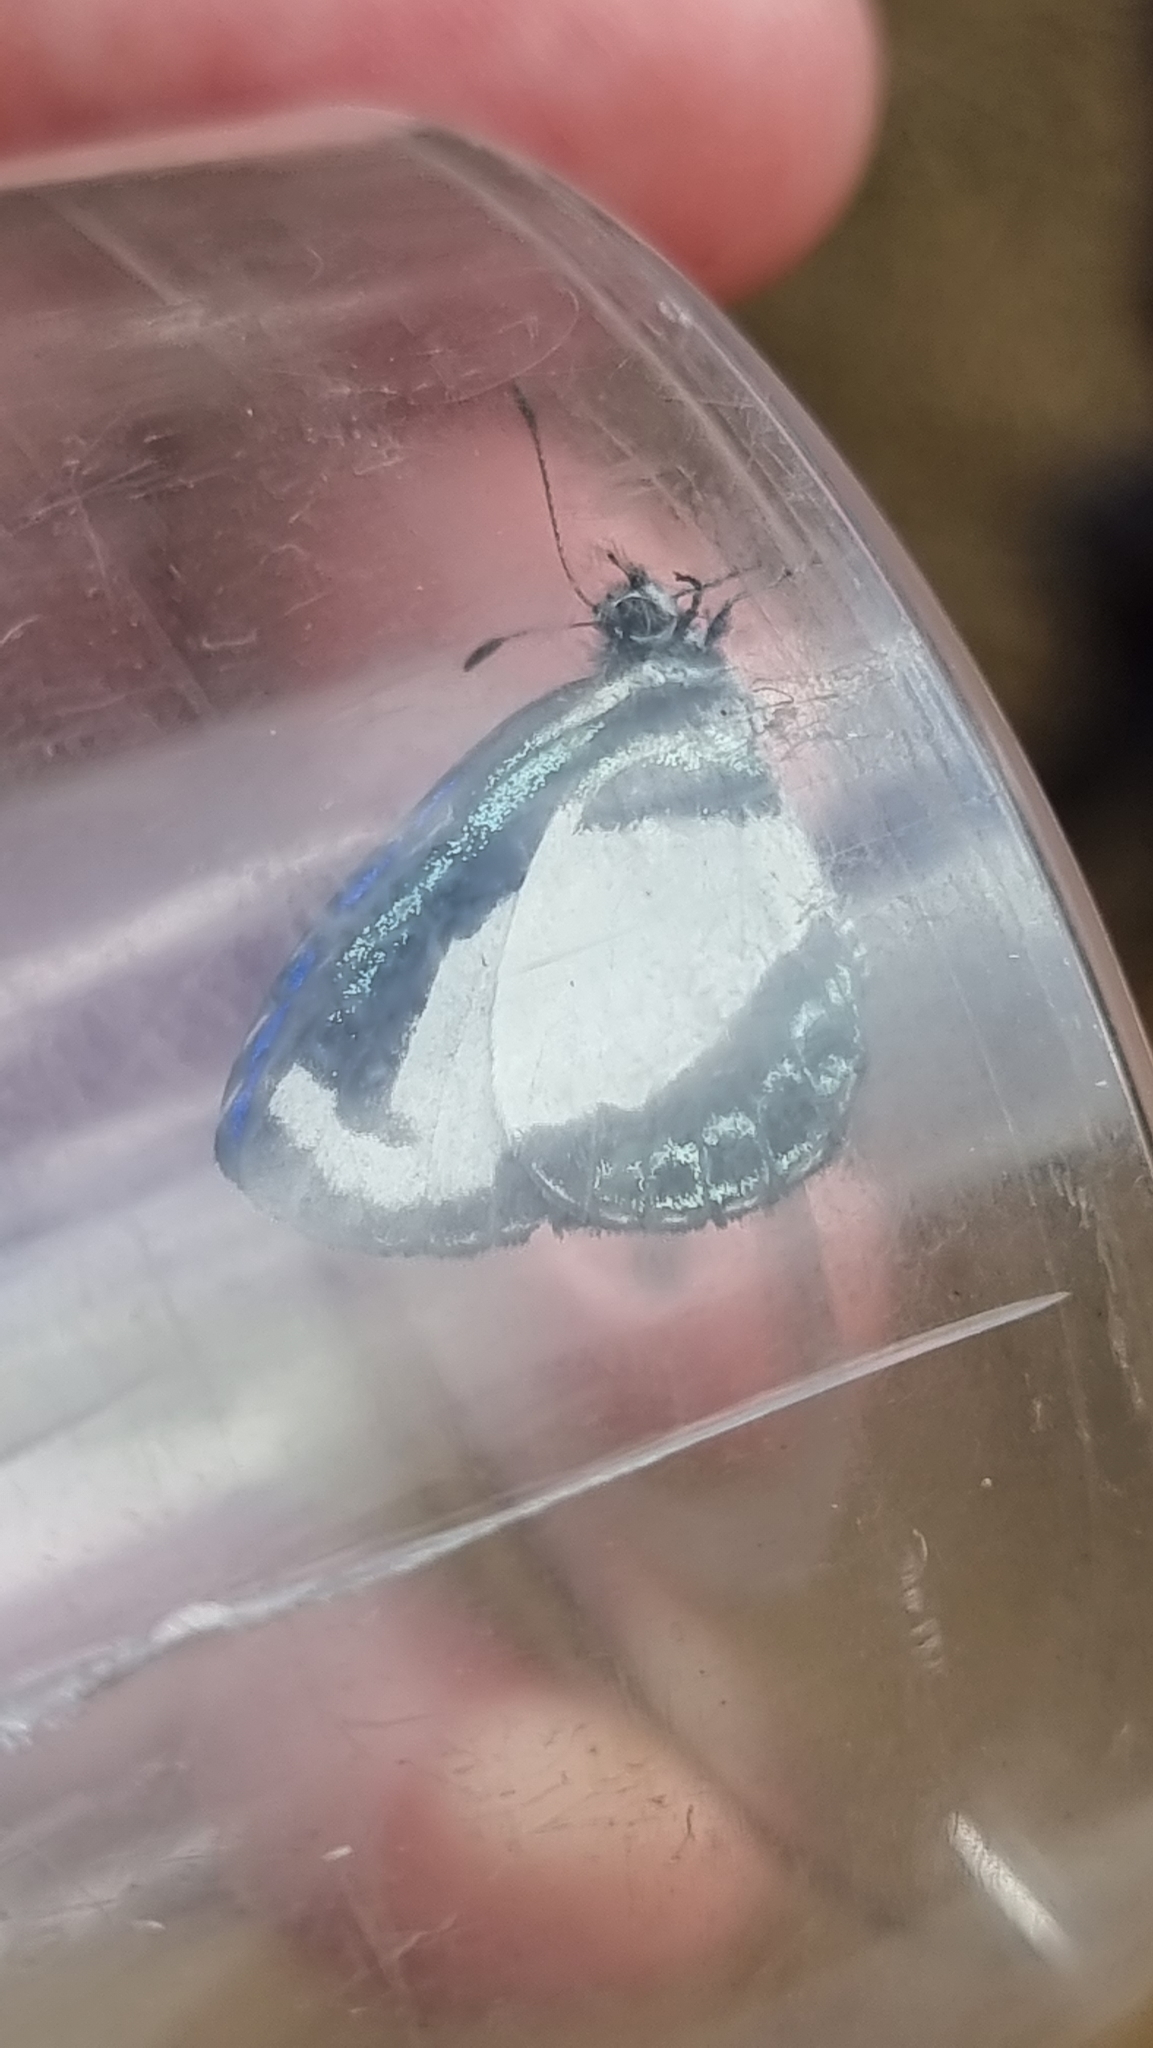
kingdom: Animalia
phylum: Arthropoda
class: Insecta
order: Lepidoptera
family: Lycaenidae
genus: Psychonotis
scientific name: Psychonotis caelius
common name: Small green banded blue
